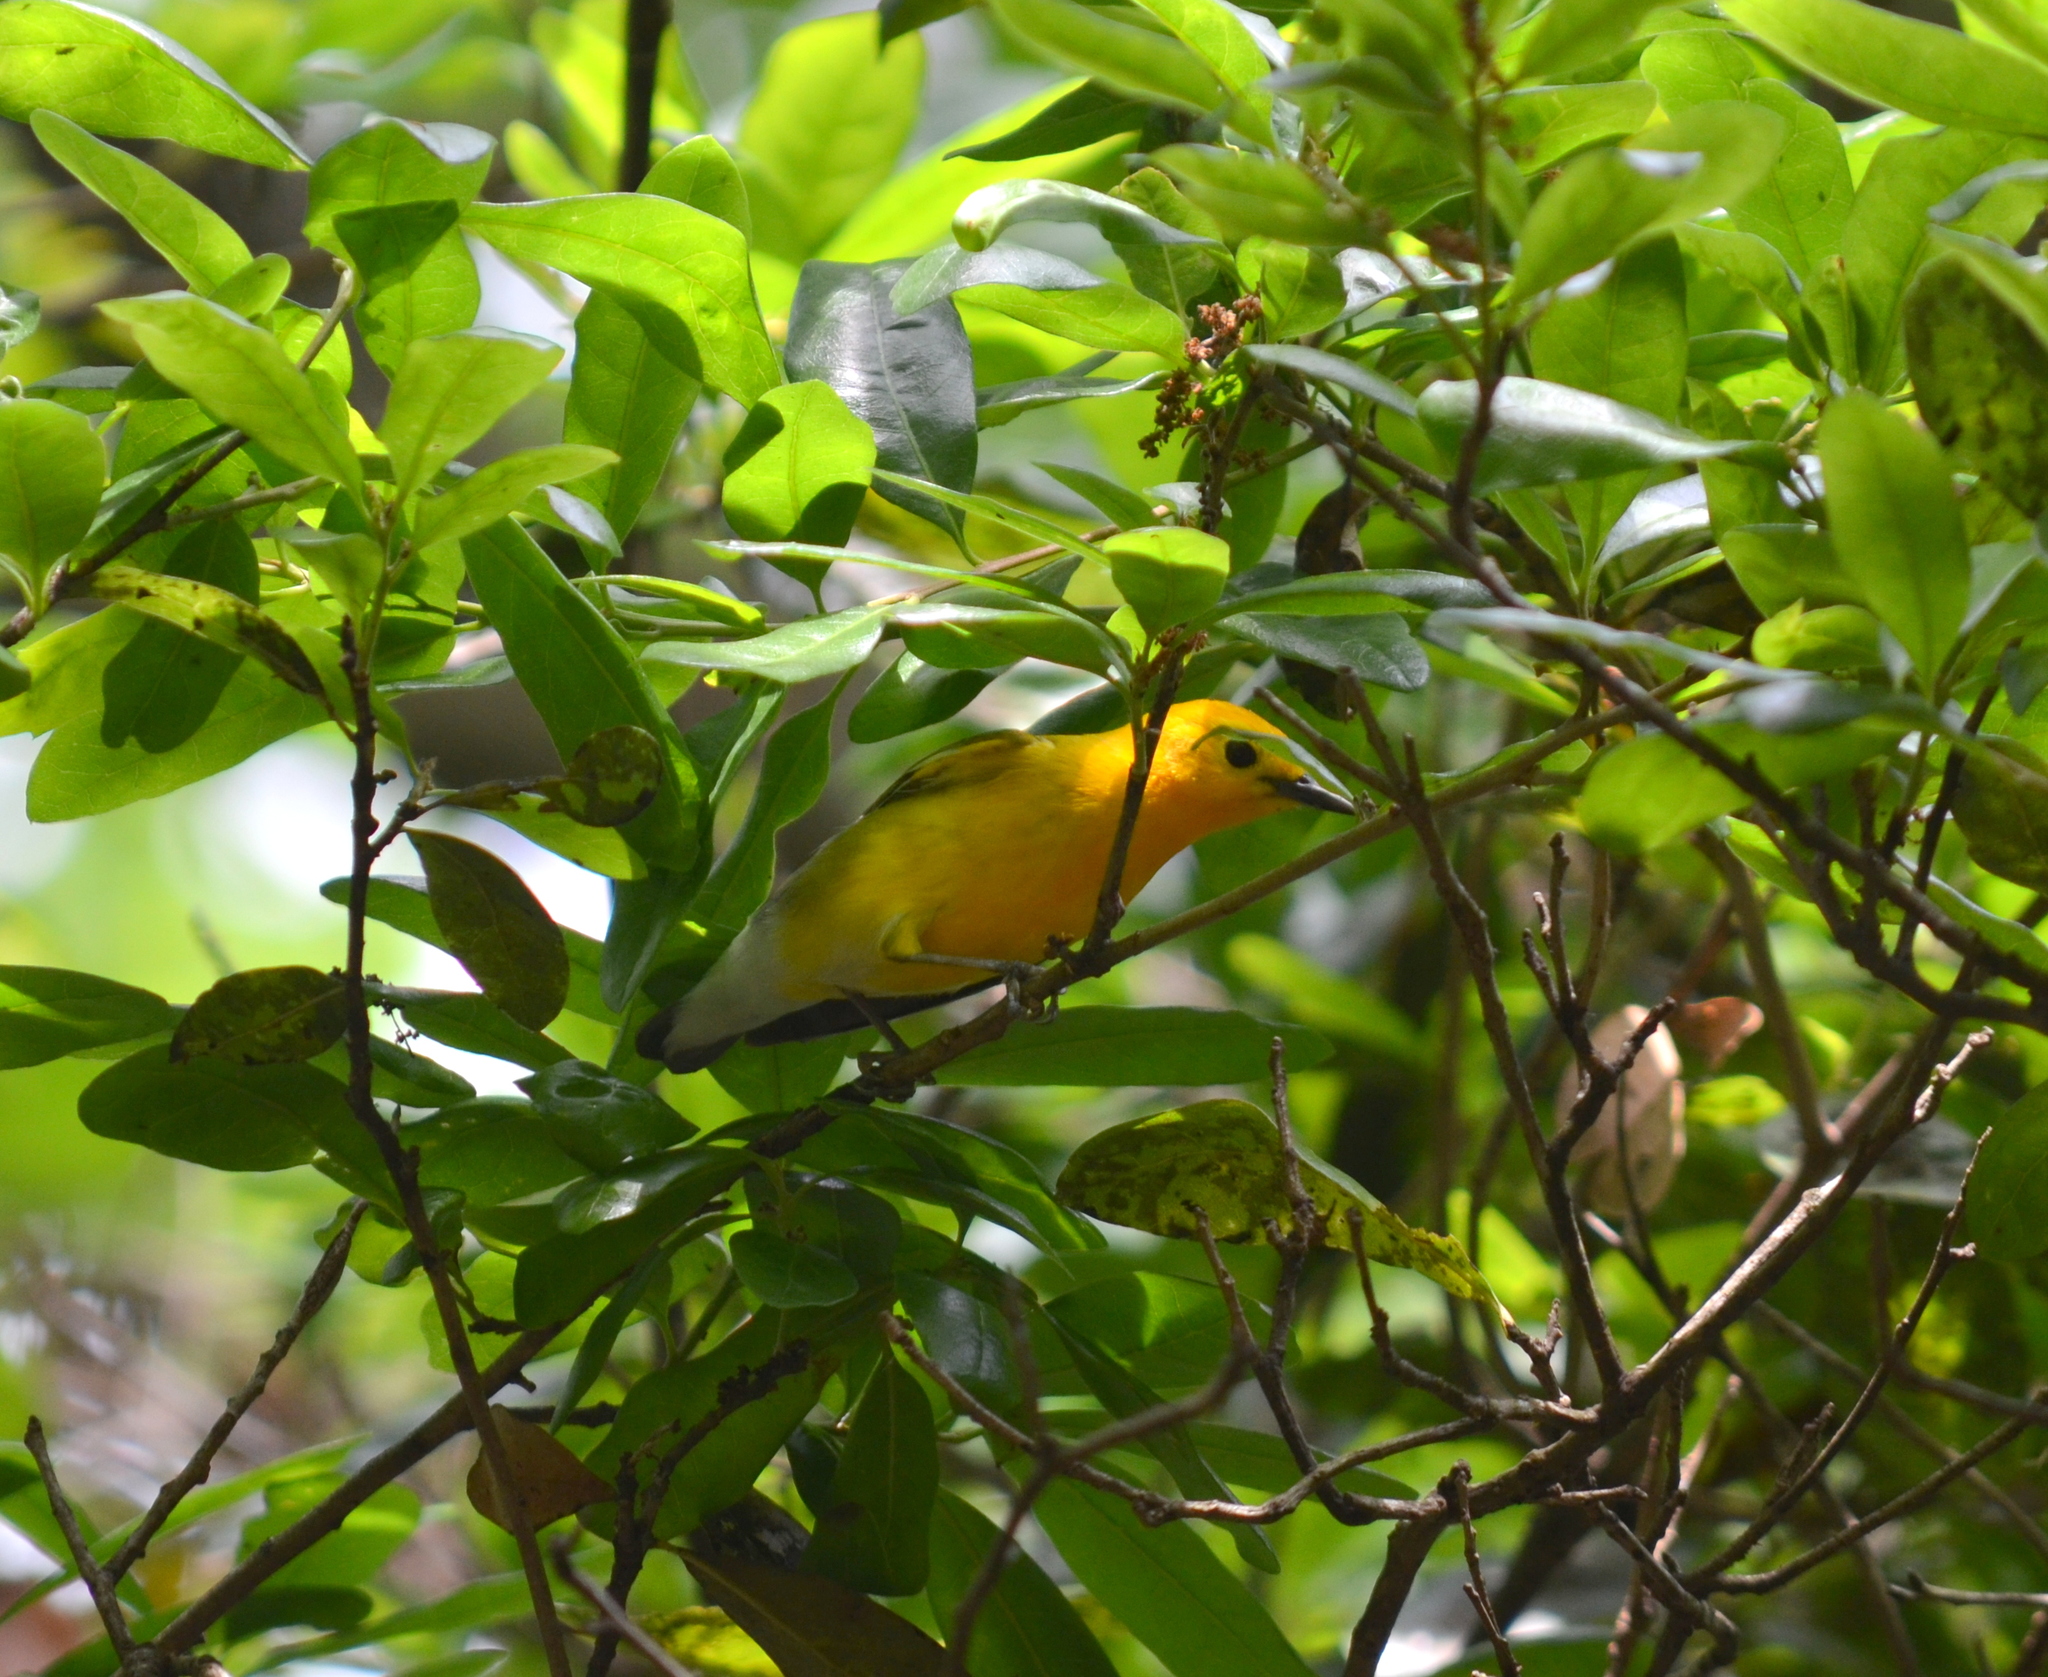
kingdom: Animalia
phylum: Chordata
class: Aves
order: Passeriformes
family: Parulidae
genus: Protonotaria
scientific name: Protonotaria citrea
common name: Prothonotary warbler
